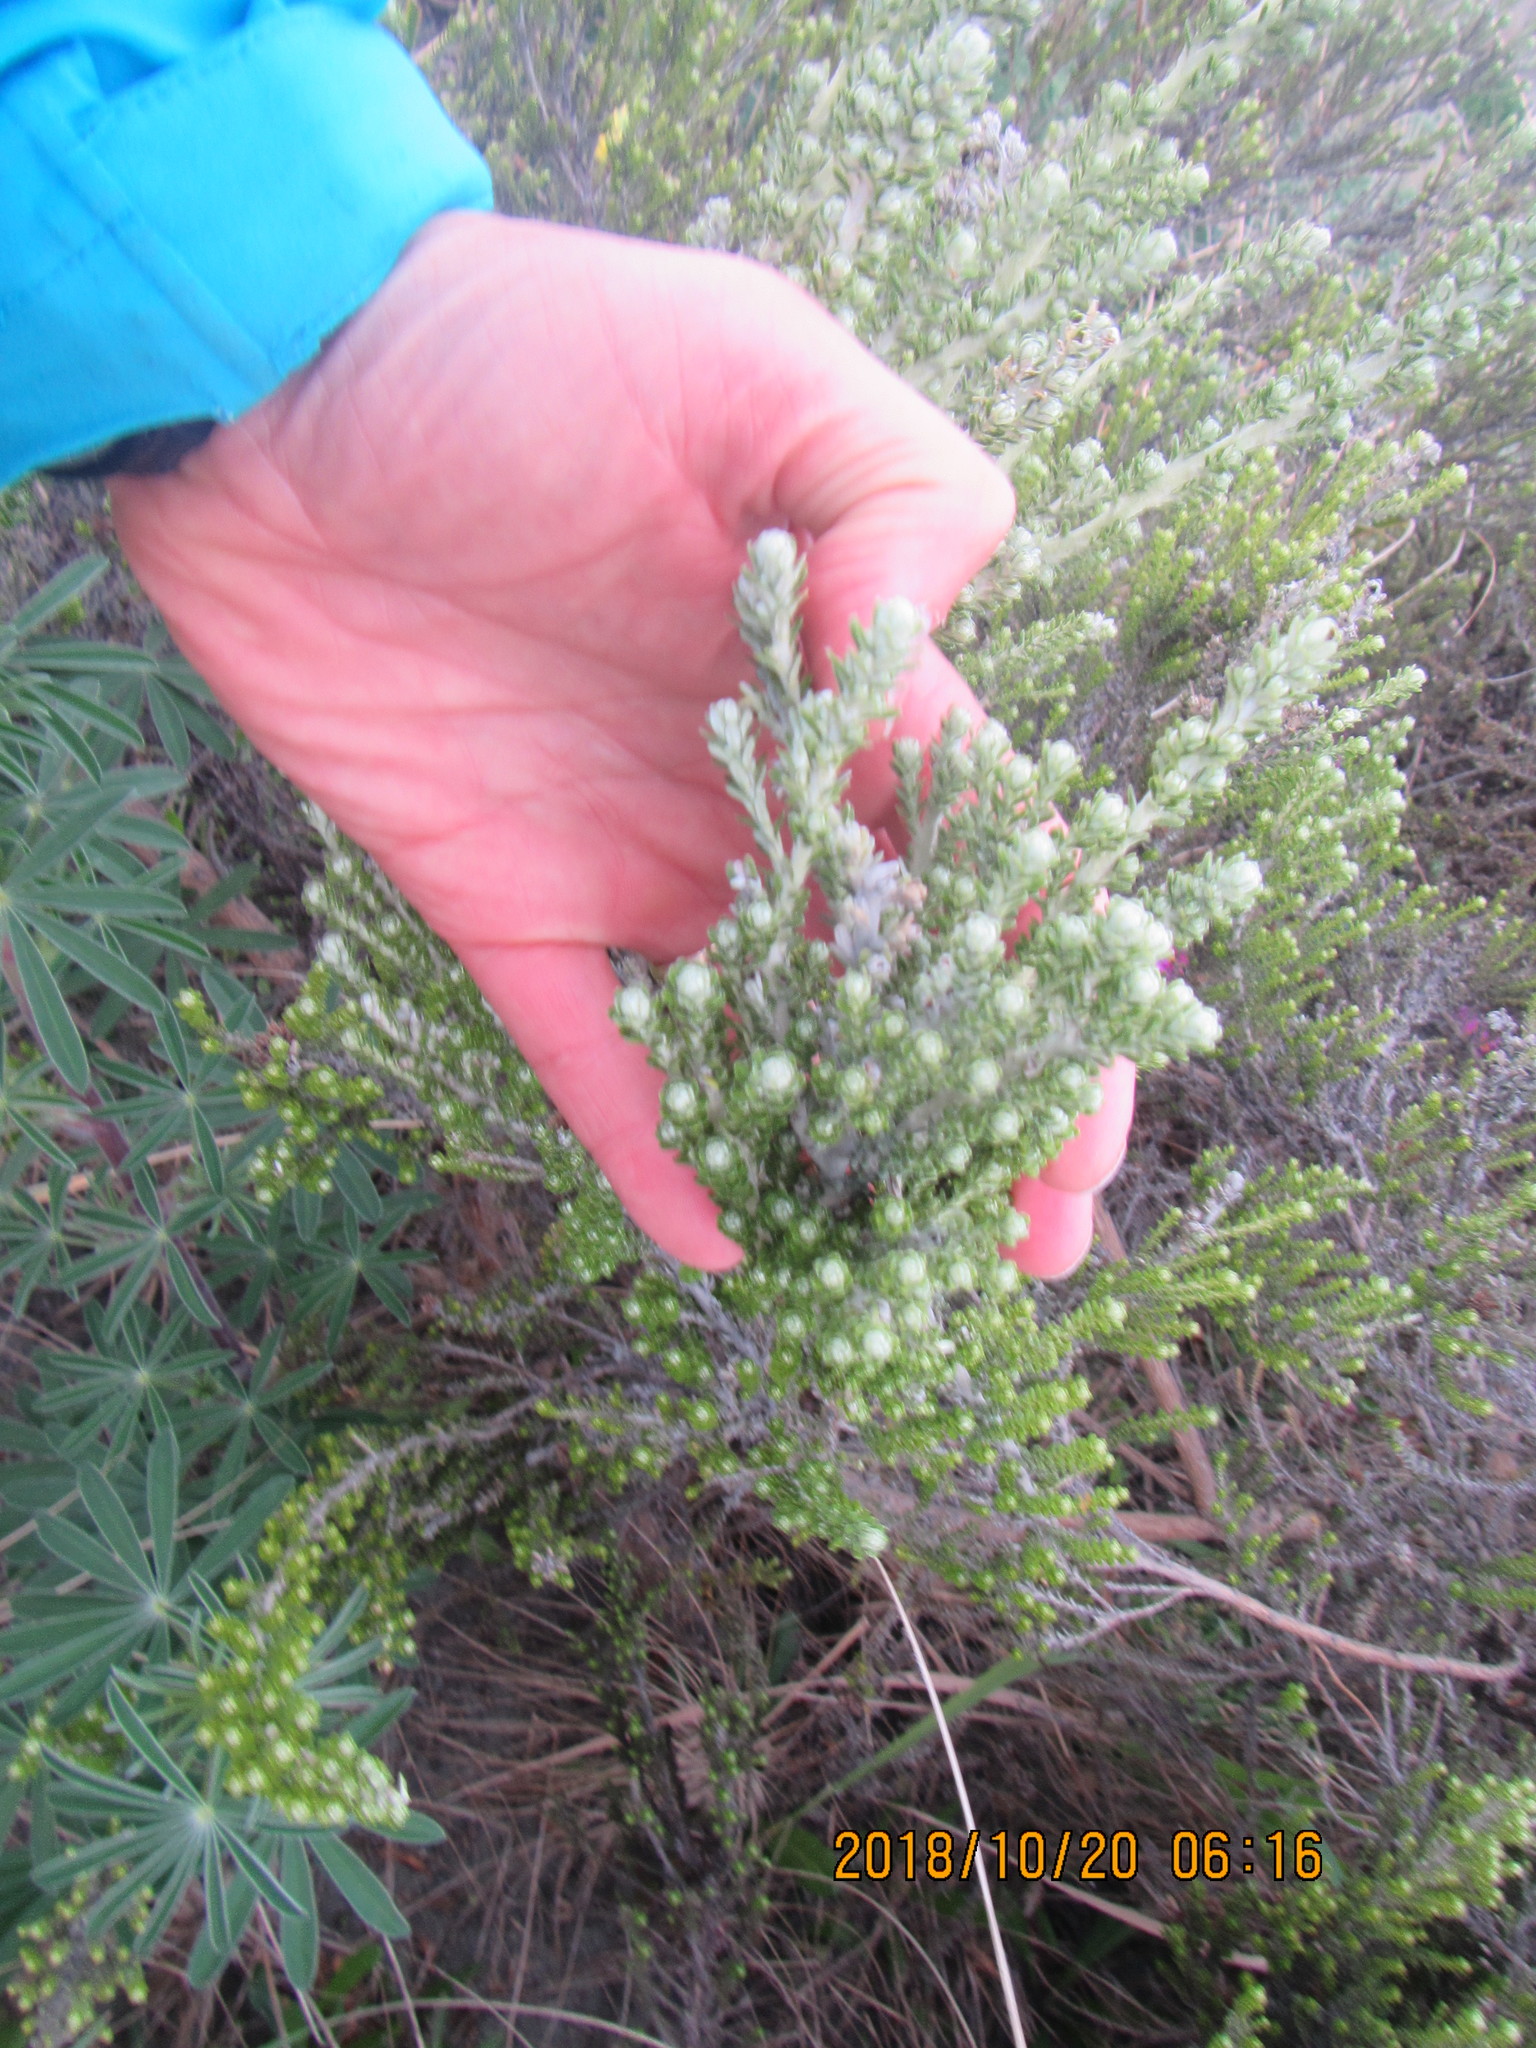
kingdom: Plantae
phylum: Tracheophyta
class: Magnoliopsida
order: Asterales
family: Asteraceae
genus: Ozothamnus
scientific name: Ozothamnus leptophyllus
